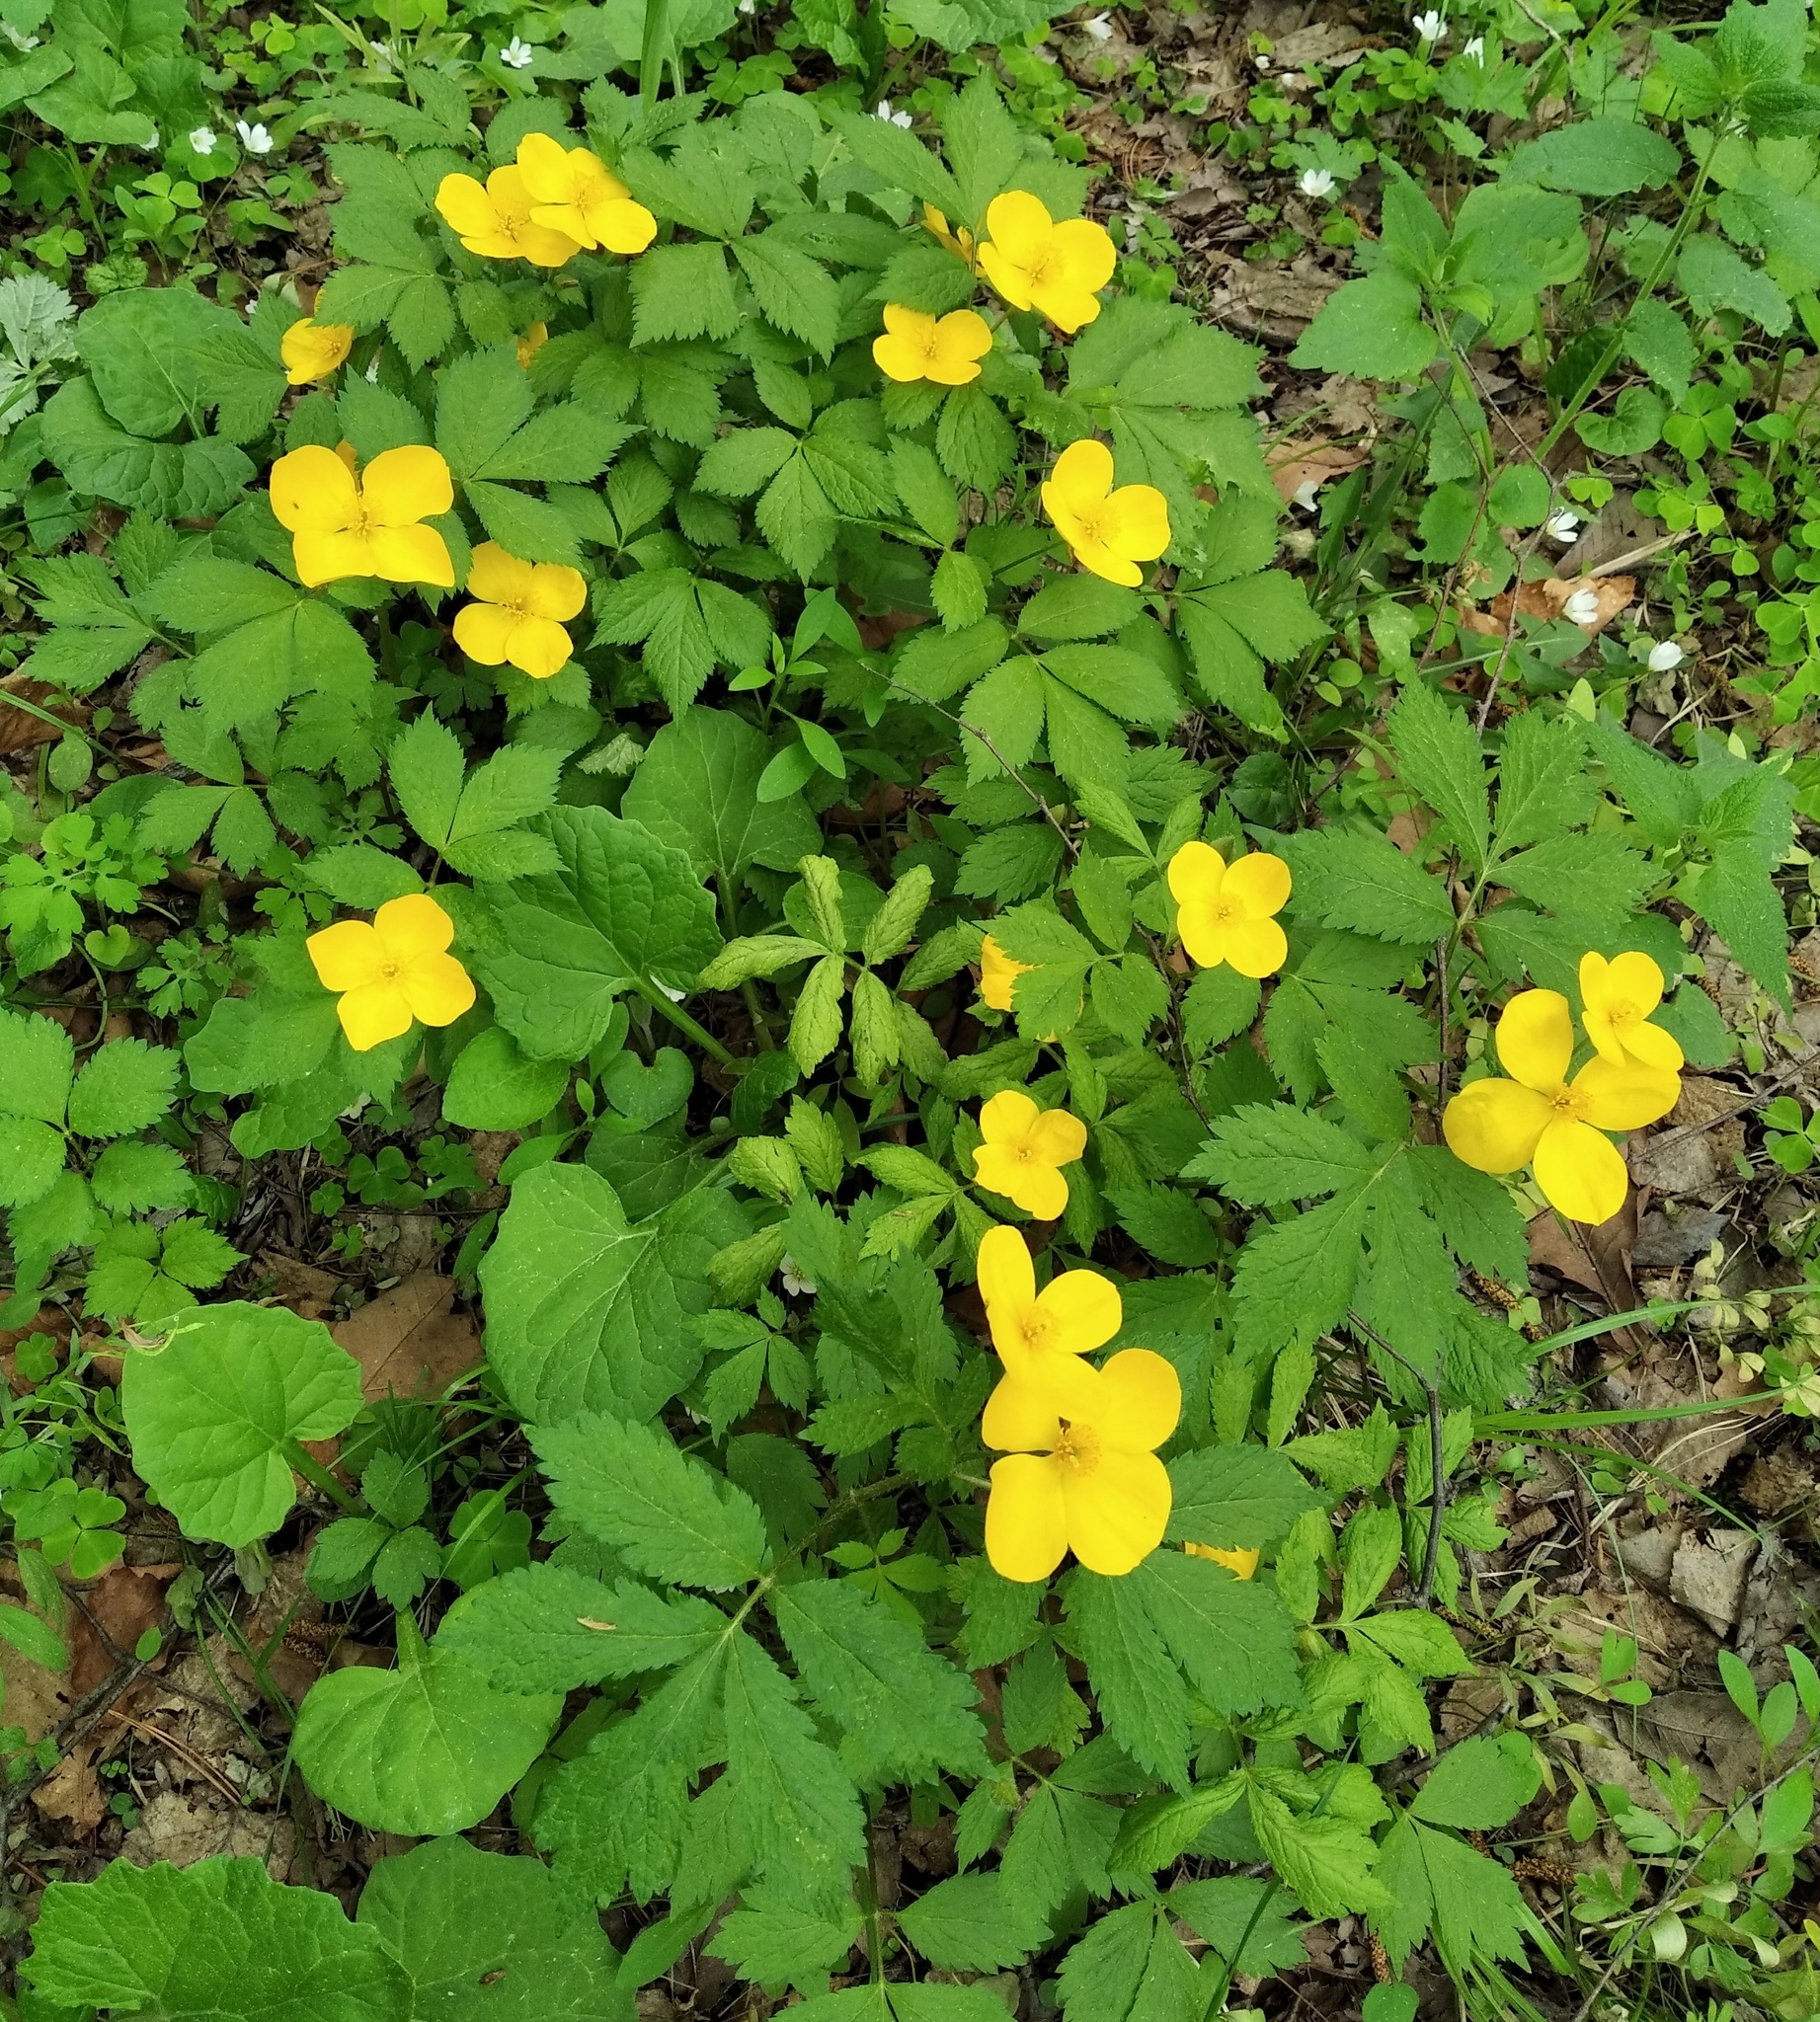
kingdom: Plantae
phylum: Tracheophyta
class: Magnoliopsida
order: Ranunculales
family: Papaveraceae
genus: Hylomecon
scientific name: Hylomecon vernalis
